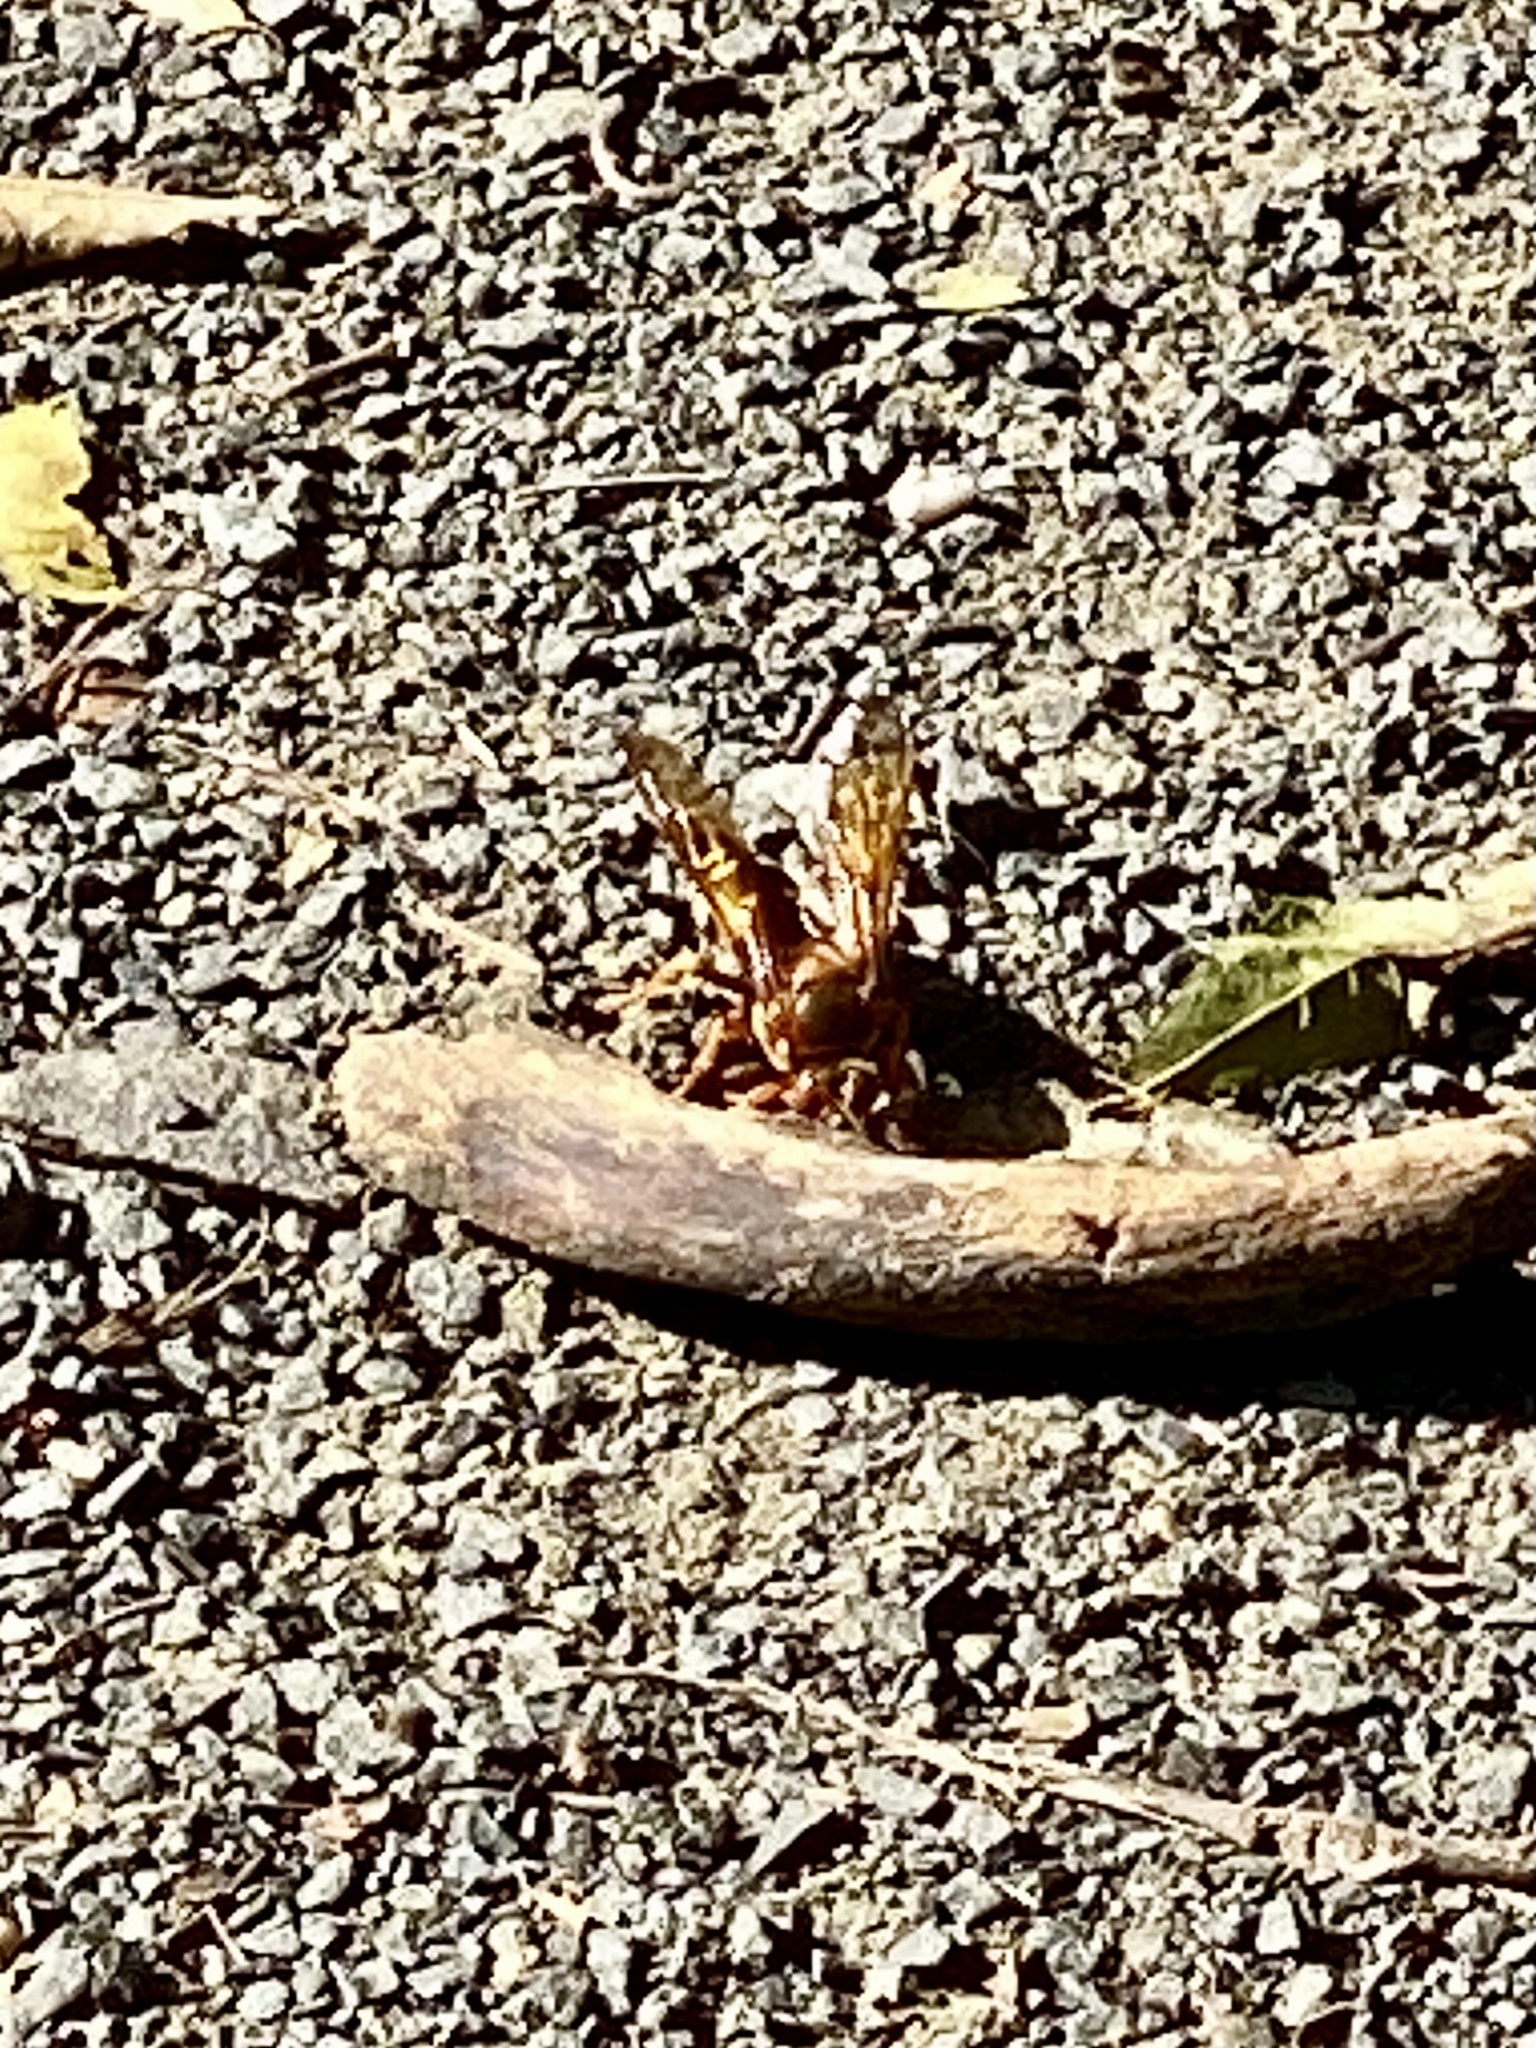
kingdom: Animalia
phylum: Arthropoda
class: Insecta
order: Hymenoptera
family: Crabronidae
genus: Sphecius
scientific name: Sphecius speciosus
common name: Cicada killer
